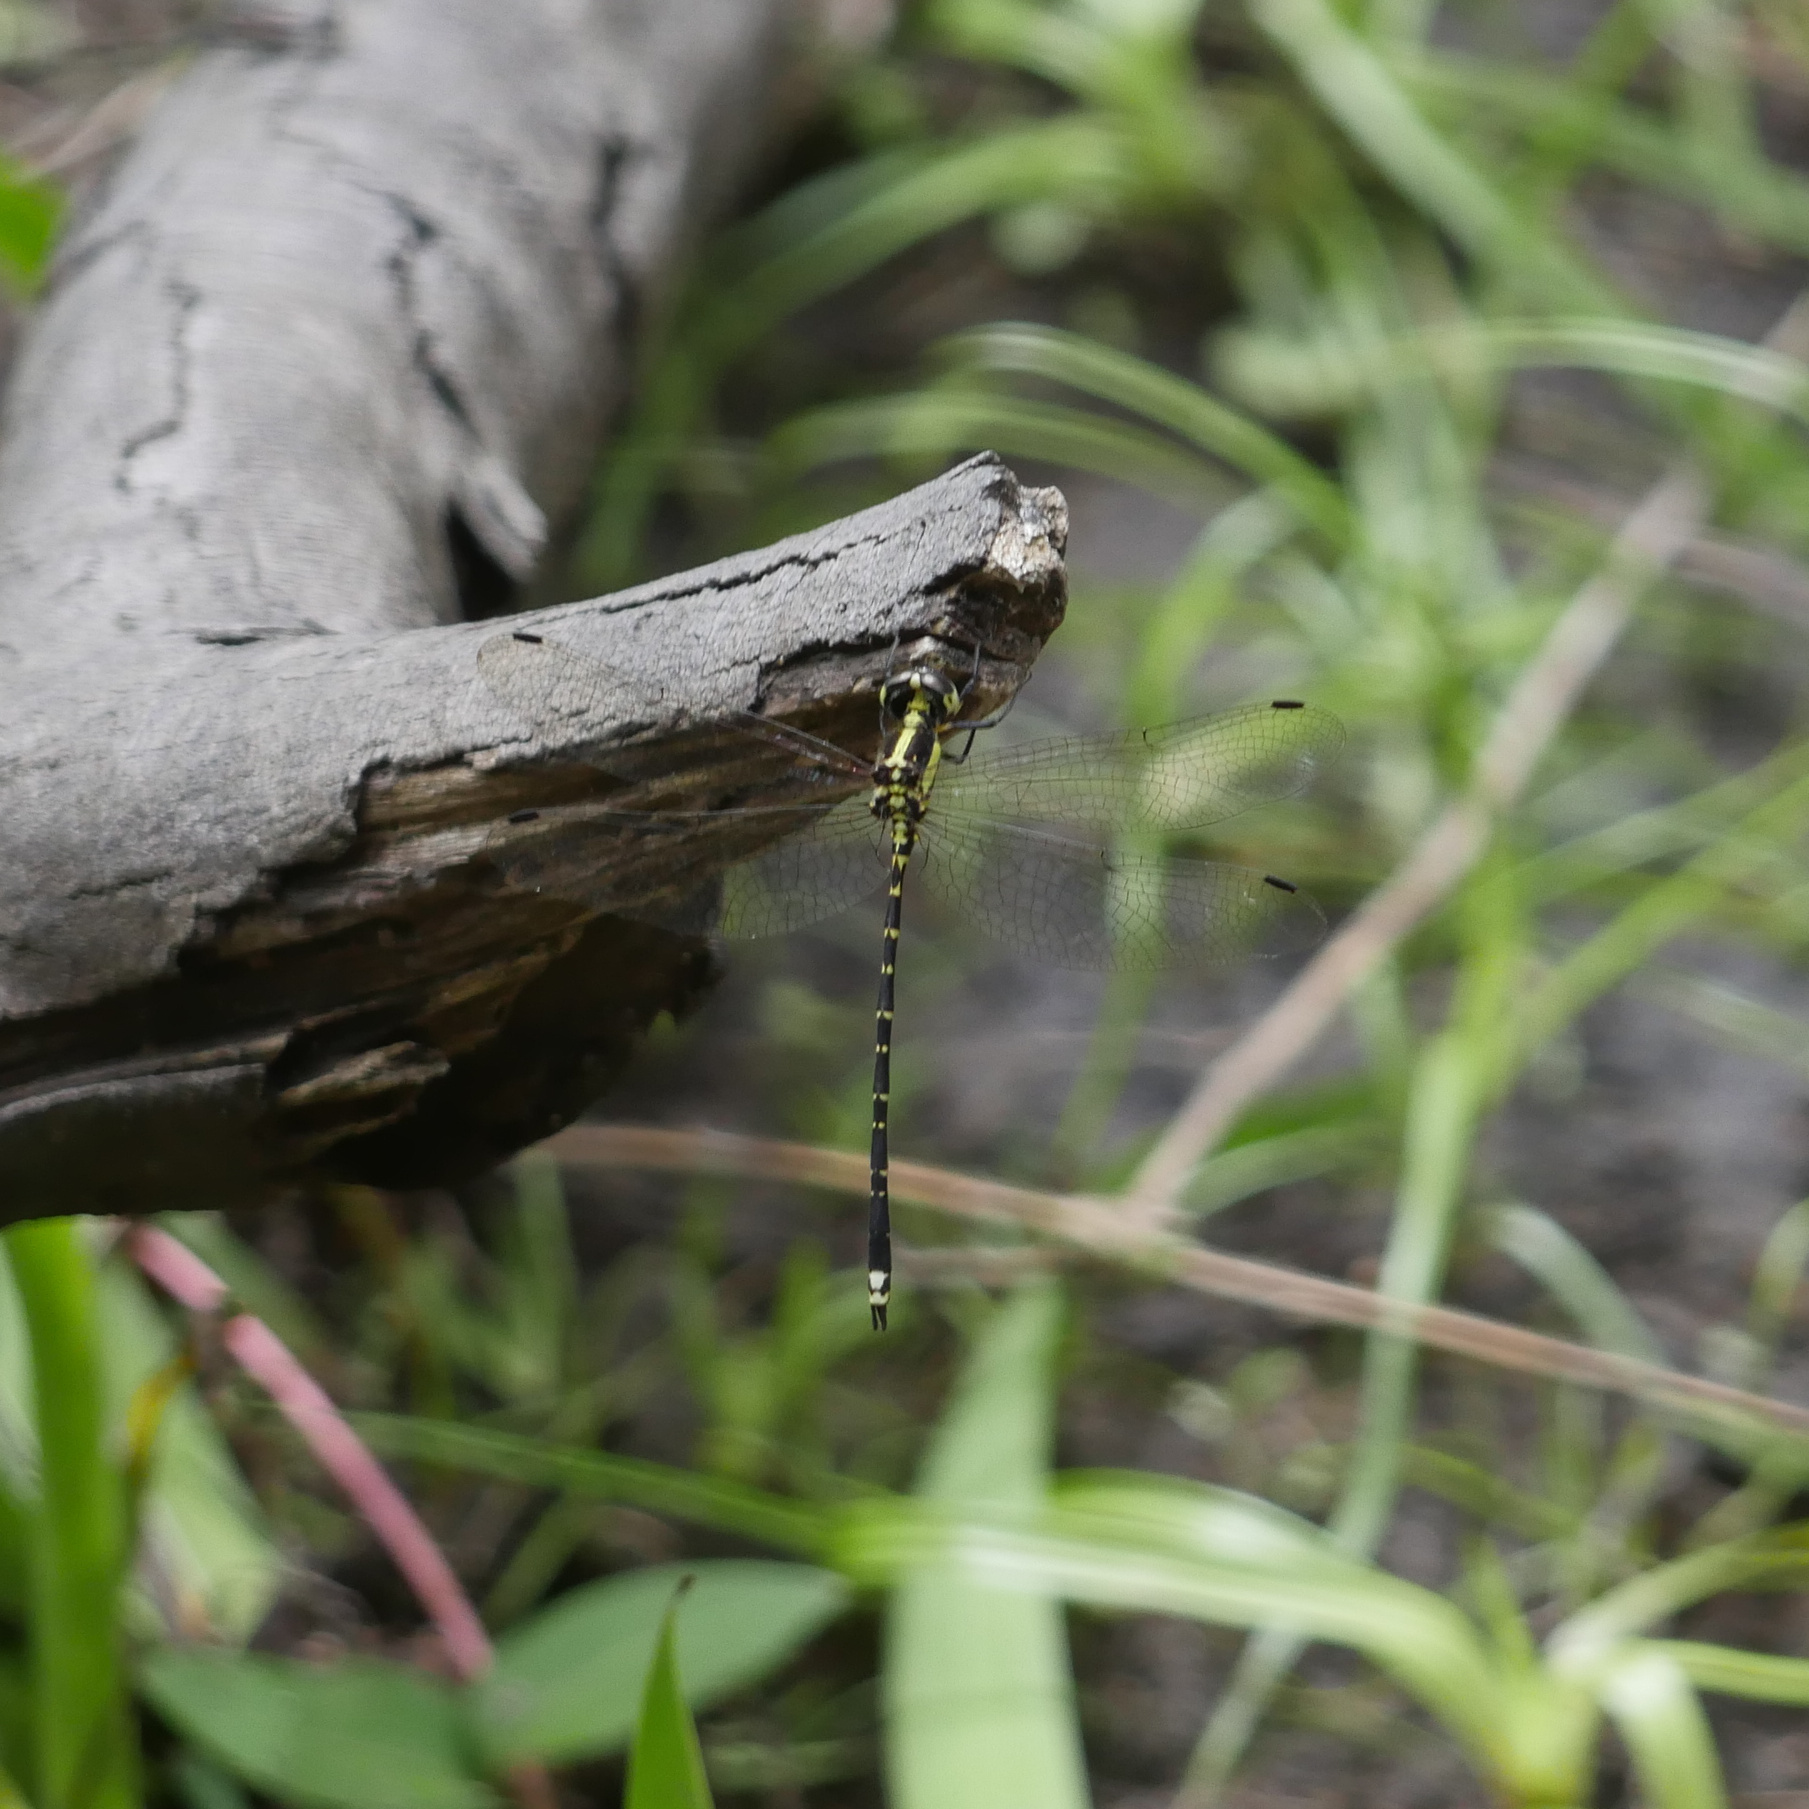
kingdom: Animalia
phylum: Arthropoda
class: Insecta
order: Odonata
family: Synthemistidae
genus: Choristhemis
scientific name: Choristhemis flavoterminata
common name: Yellow-tipped tigertail
